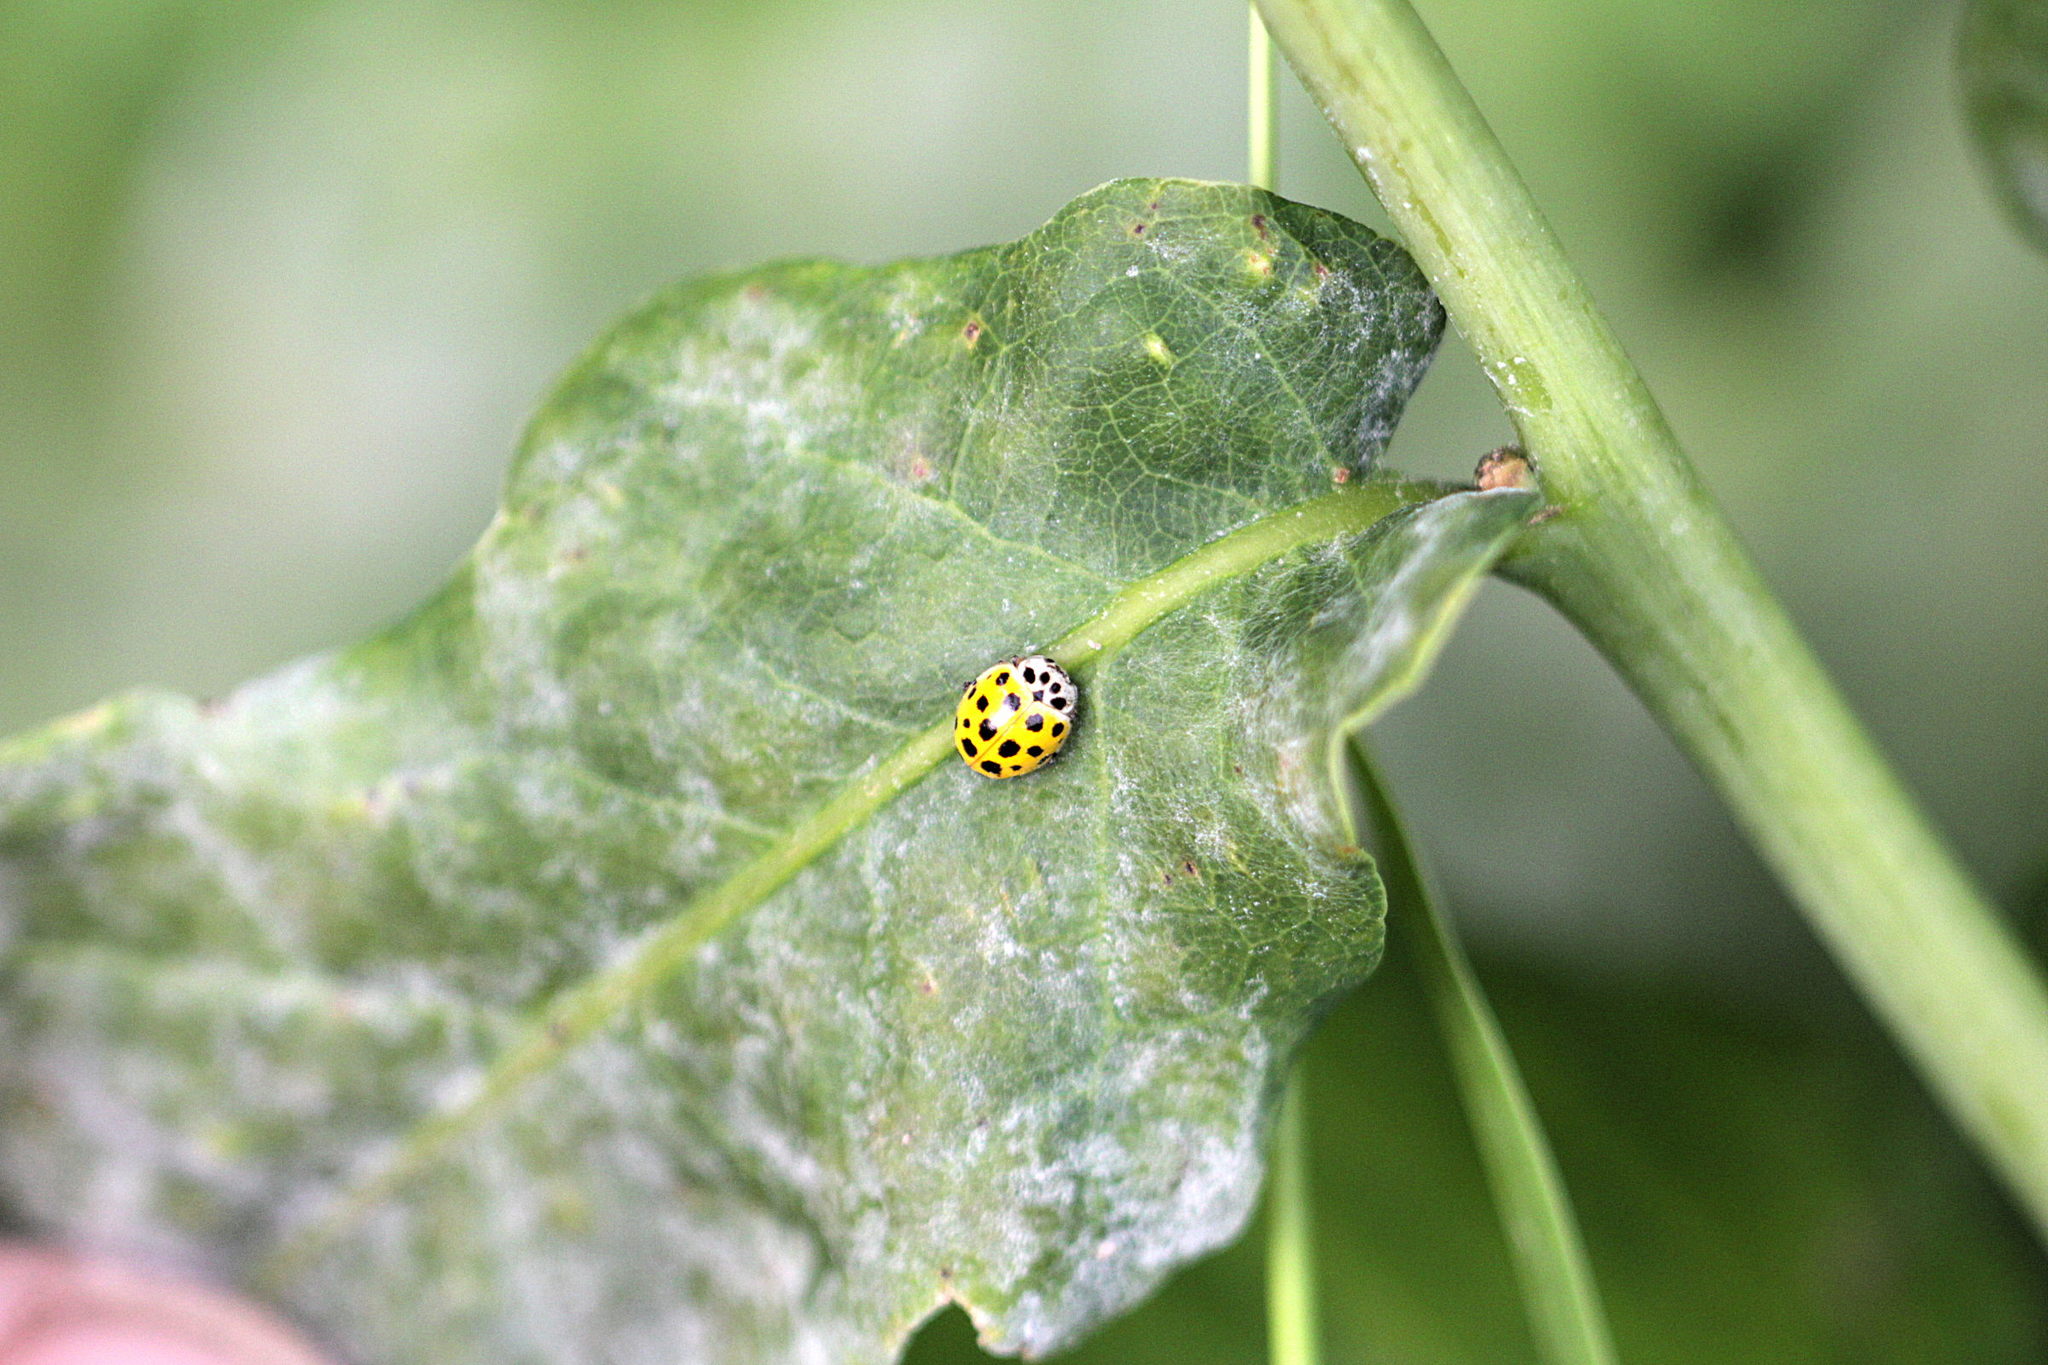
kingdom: Animalia
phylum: Arthropoda
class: Insecta
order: Coleoptera
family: Coccinellidae
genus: Psyllobora
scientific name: Psyllobora vigintiduopunctata
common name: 22-spot ladybird
